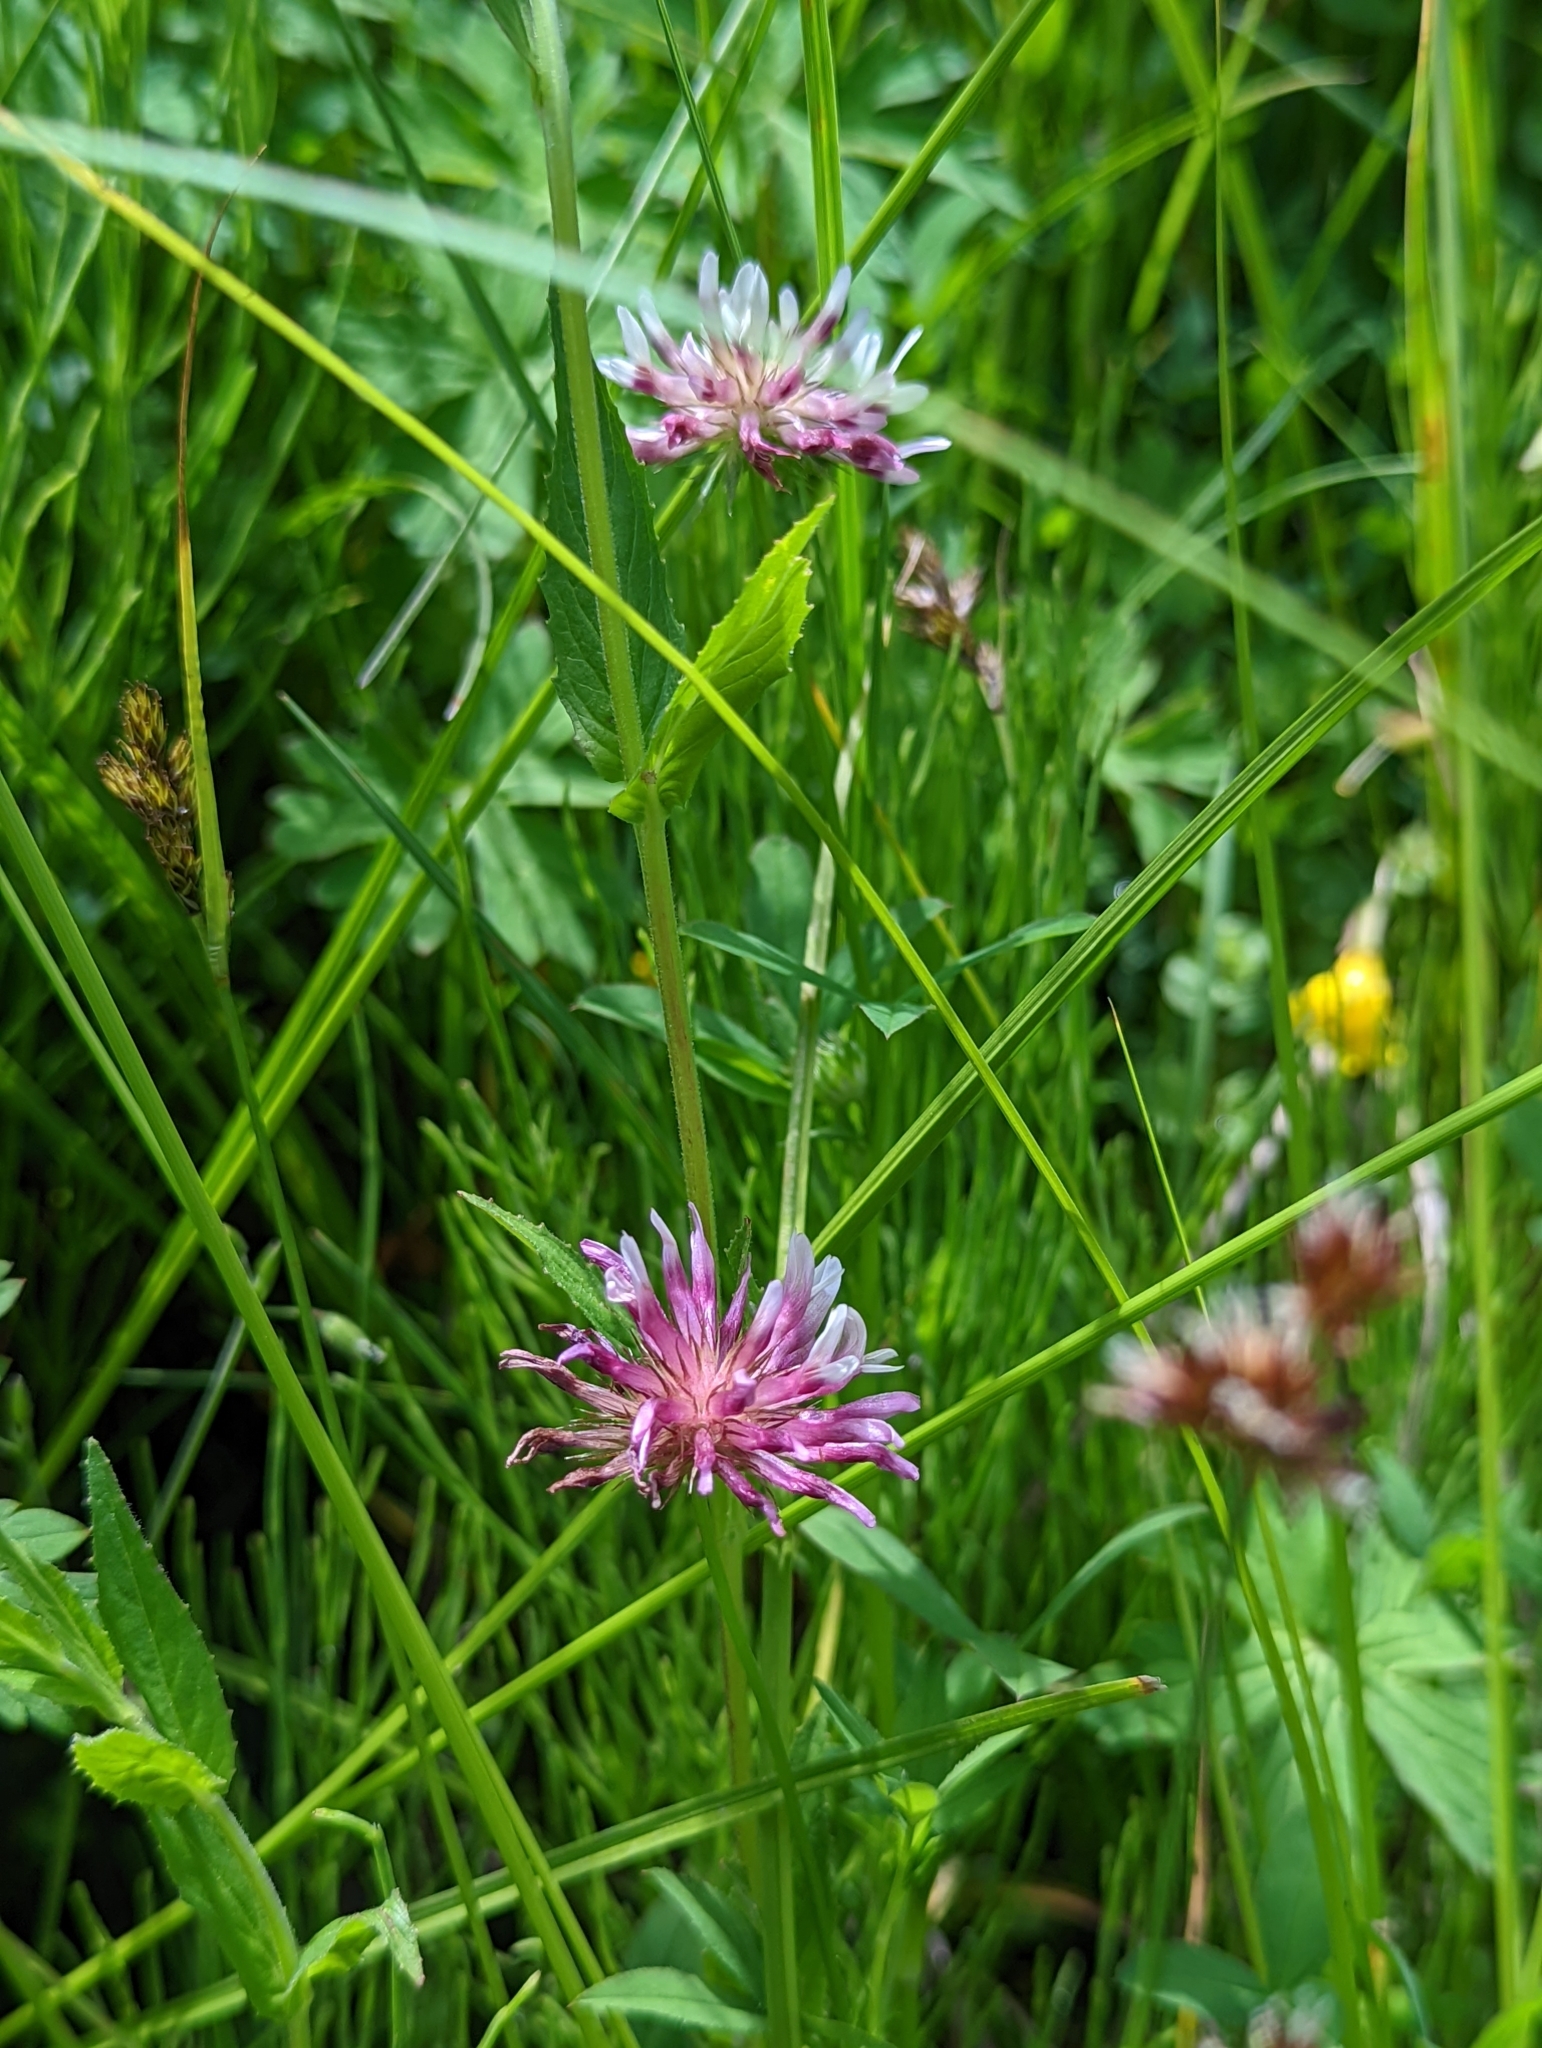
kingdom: Plantae
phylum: Tracheophyta
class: Magnoliopsida
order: Fabales
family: Fabaceae
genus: Trifolium
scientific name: Trifolium wormskioldii
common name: Springbank clover
